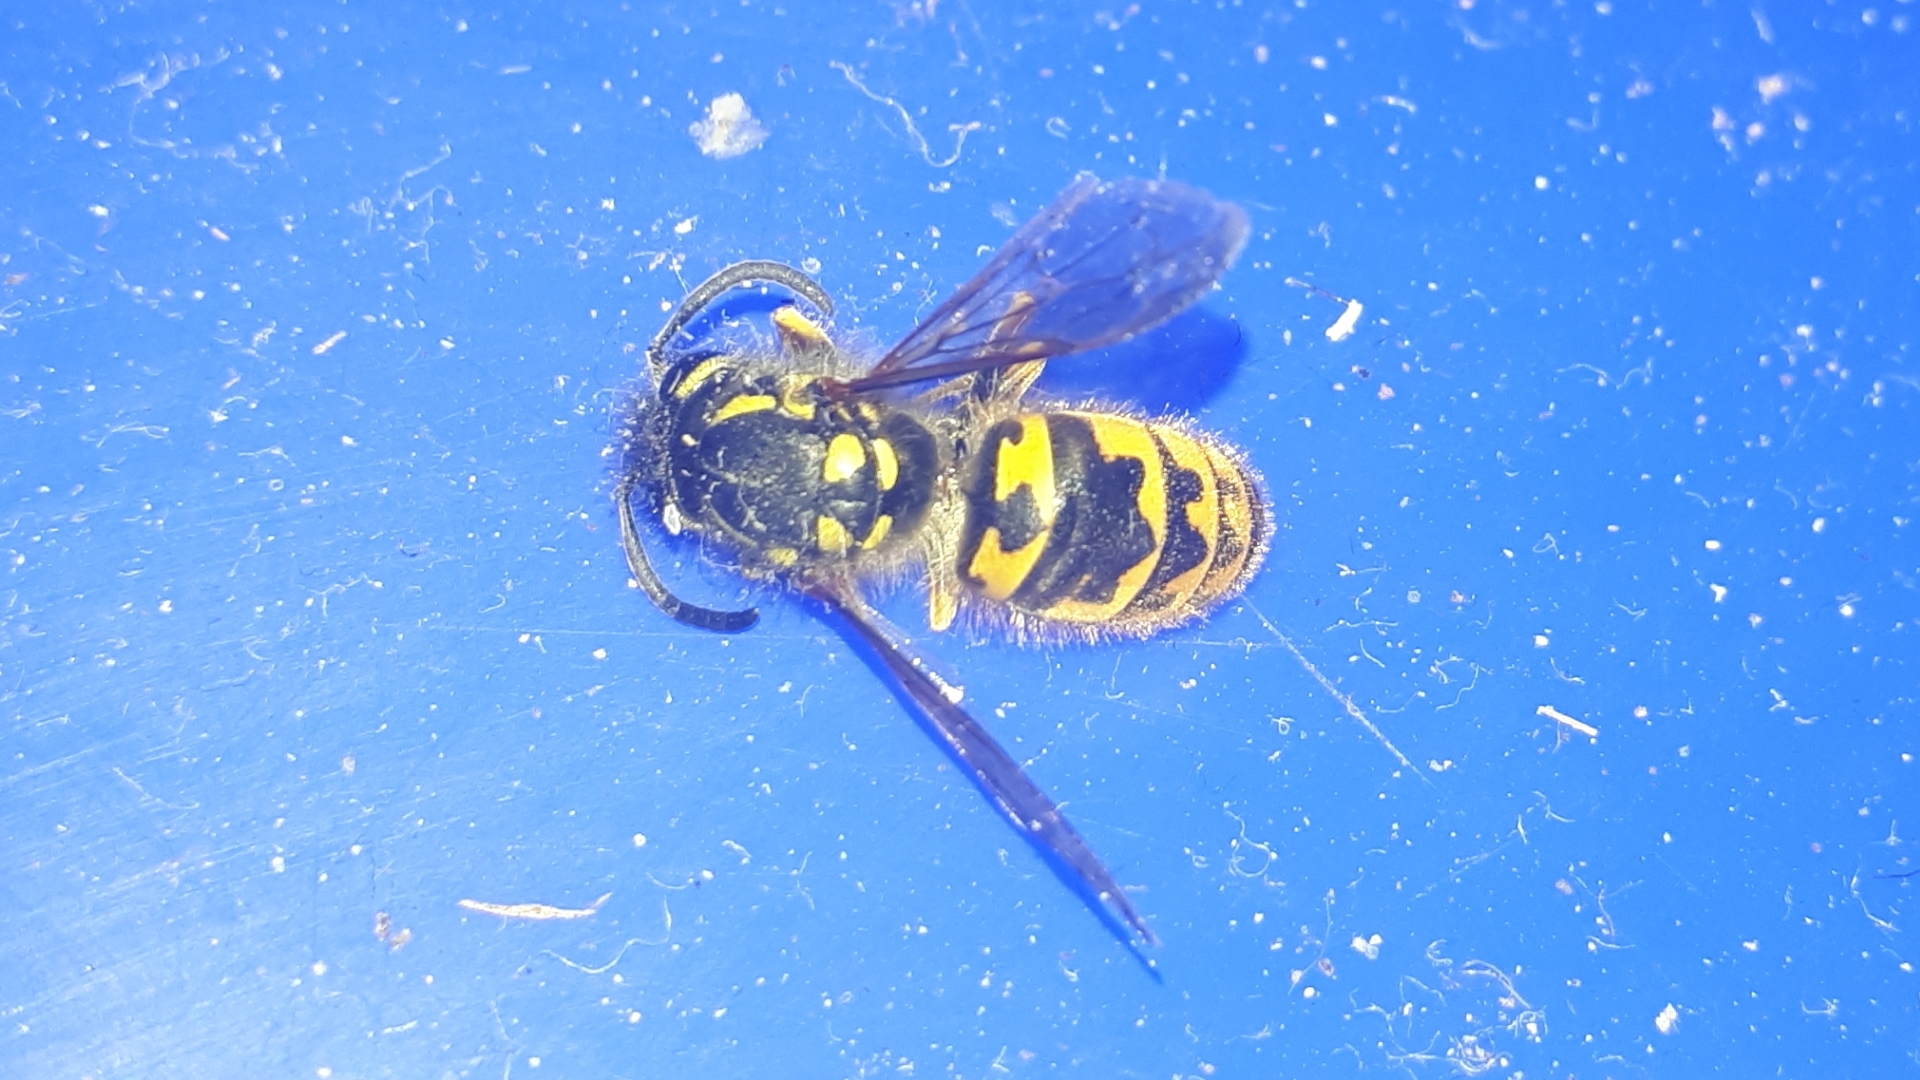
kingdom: Animalia
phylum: Arthropoda
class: Insecta
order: Hymenoptera
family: Vespidae
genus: Vespula
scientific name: Vespula germanica
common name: German wasp
